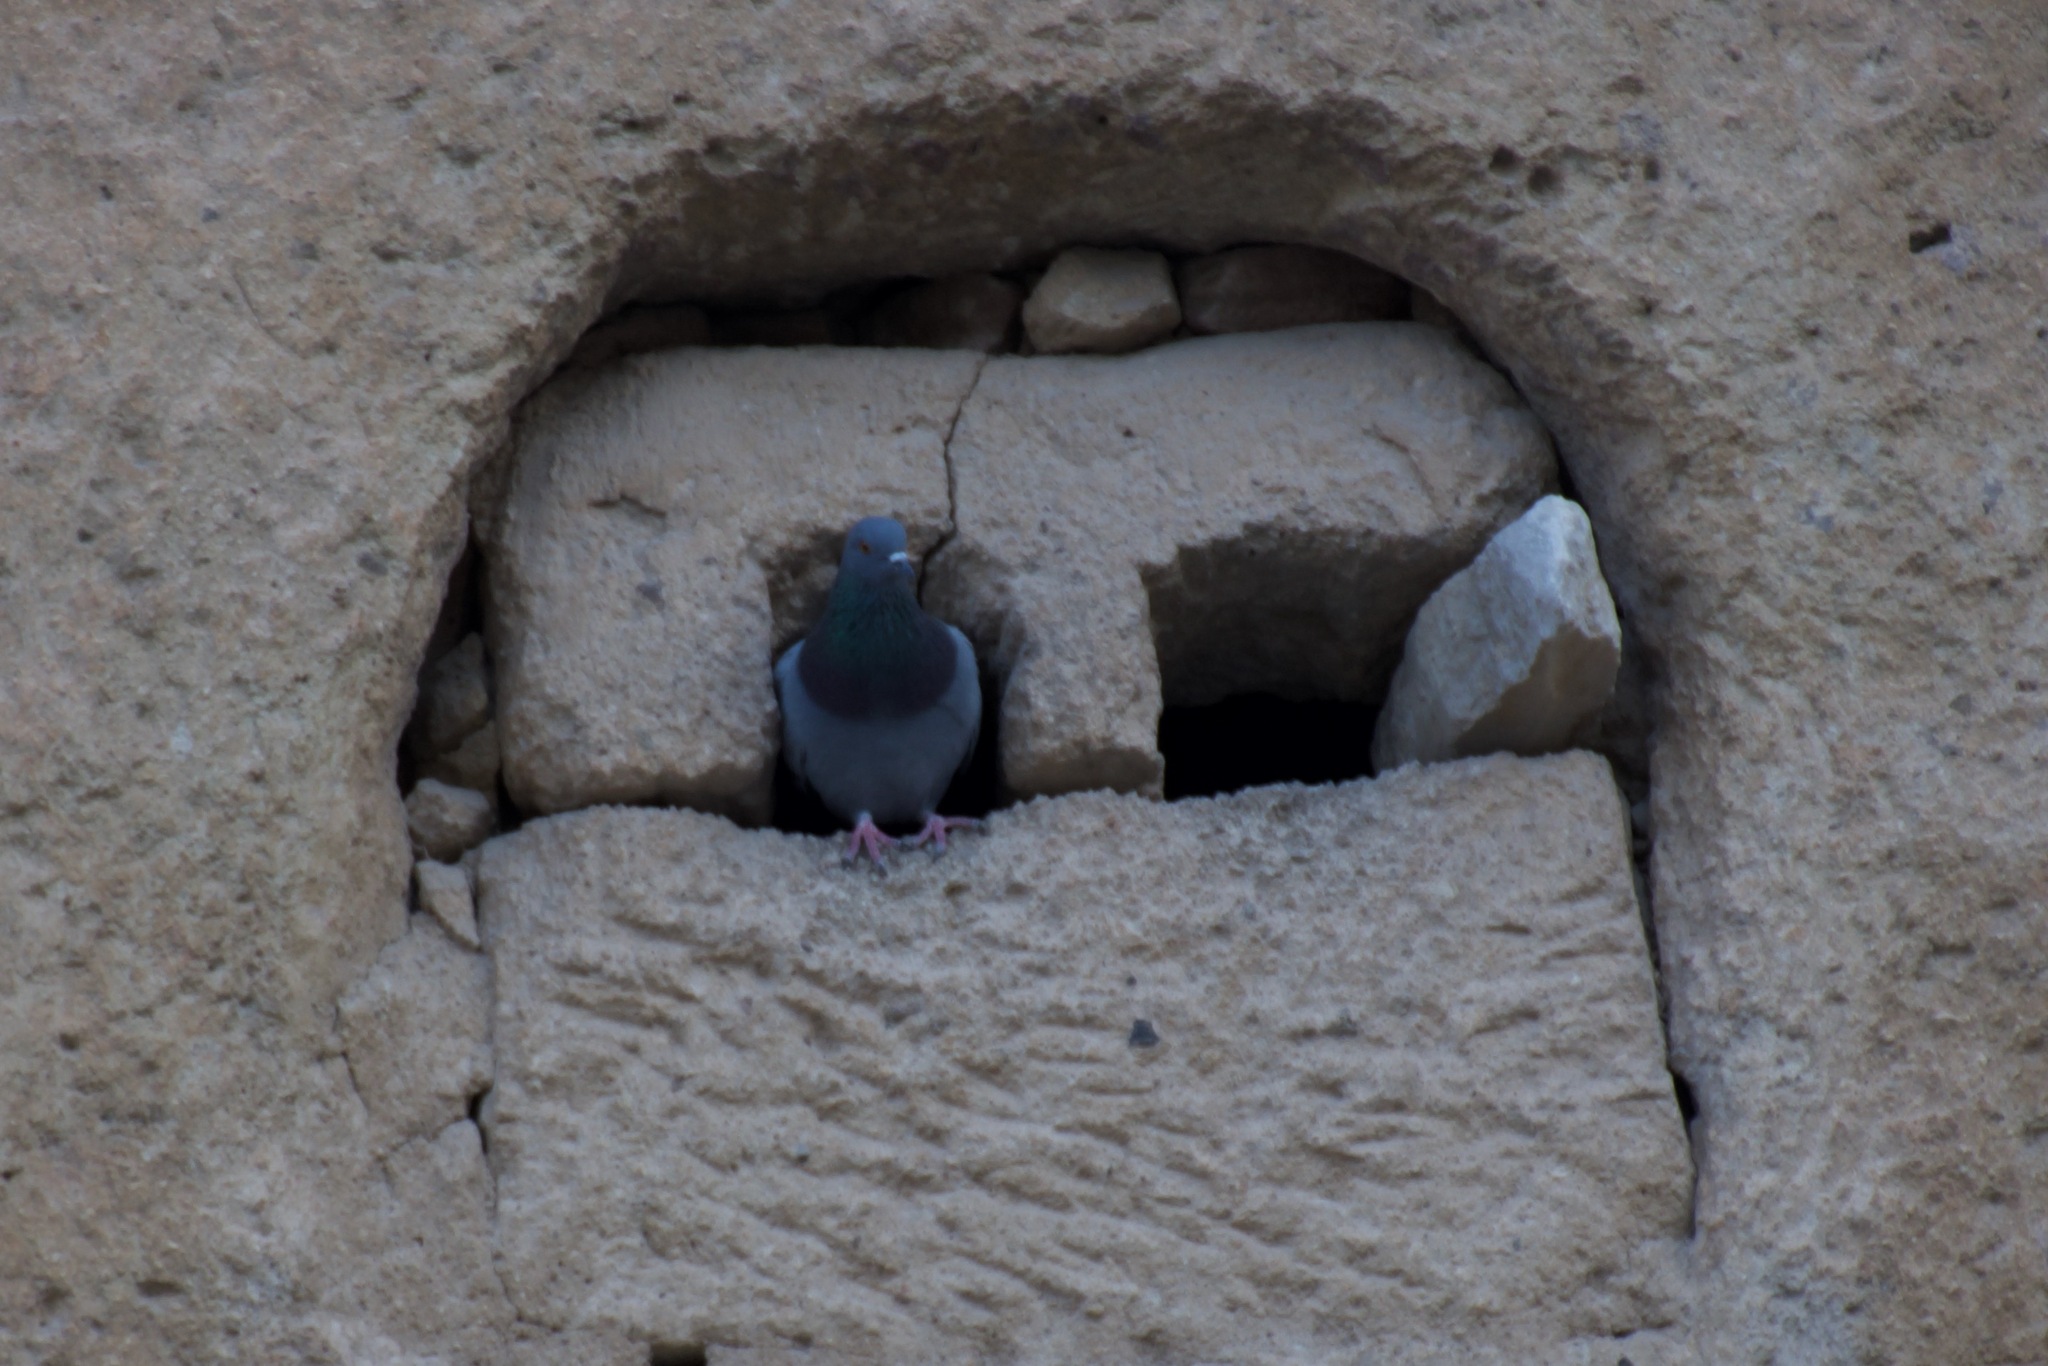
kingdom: Animalia
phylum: Chordata
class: Aves
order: Columbiformes
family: Columbidae
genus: Columba
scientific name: Columba livia
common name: Rock pigeon
